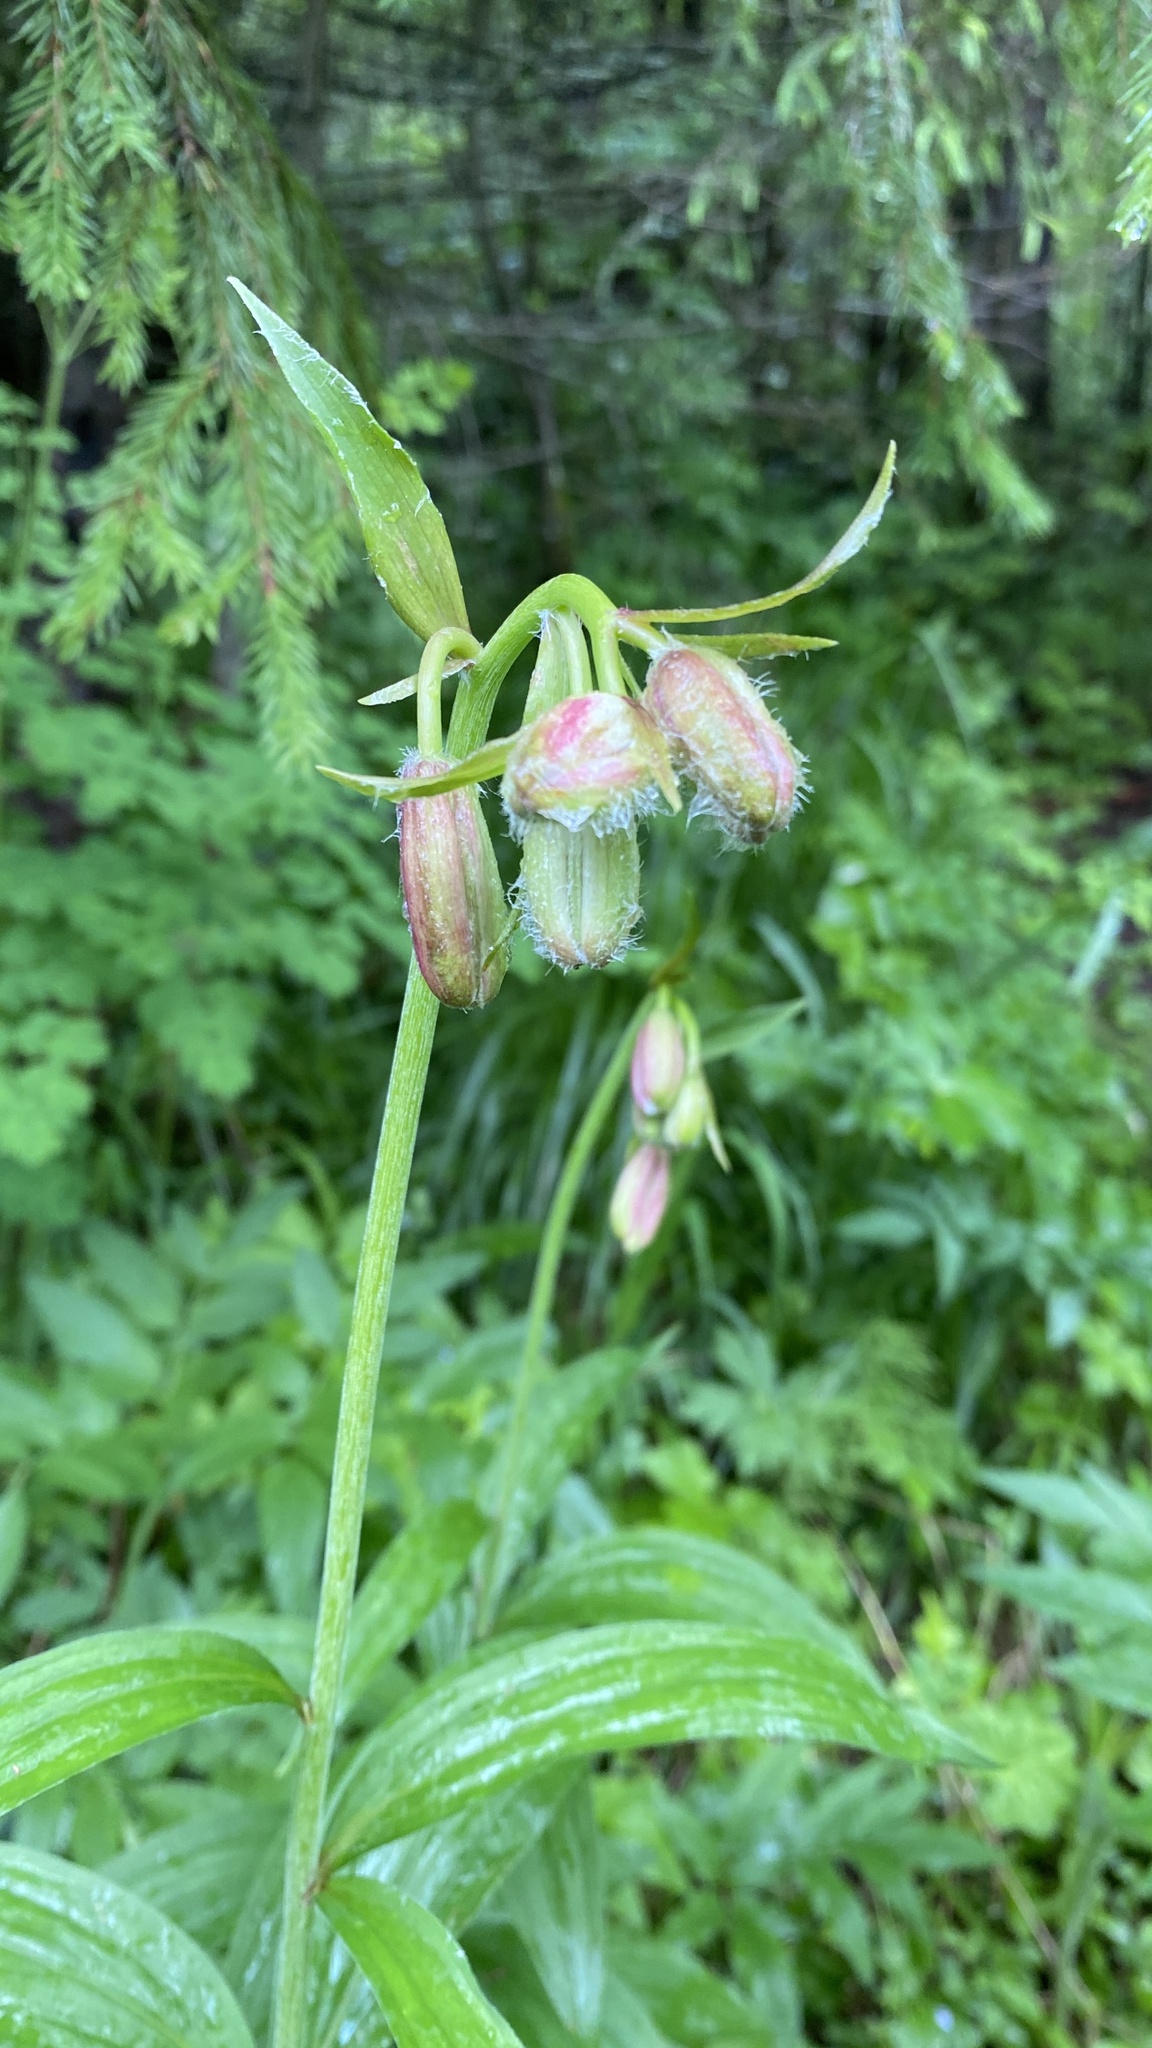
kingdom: Plantae
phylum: Tracheophyta
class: Liliopsida
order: Liliales
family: Liliaceae
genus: Lilium
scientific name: Lilium martagon
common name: Martagon lily
